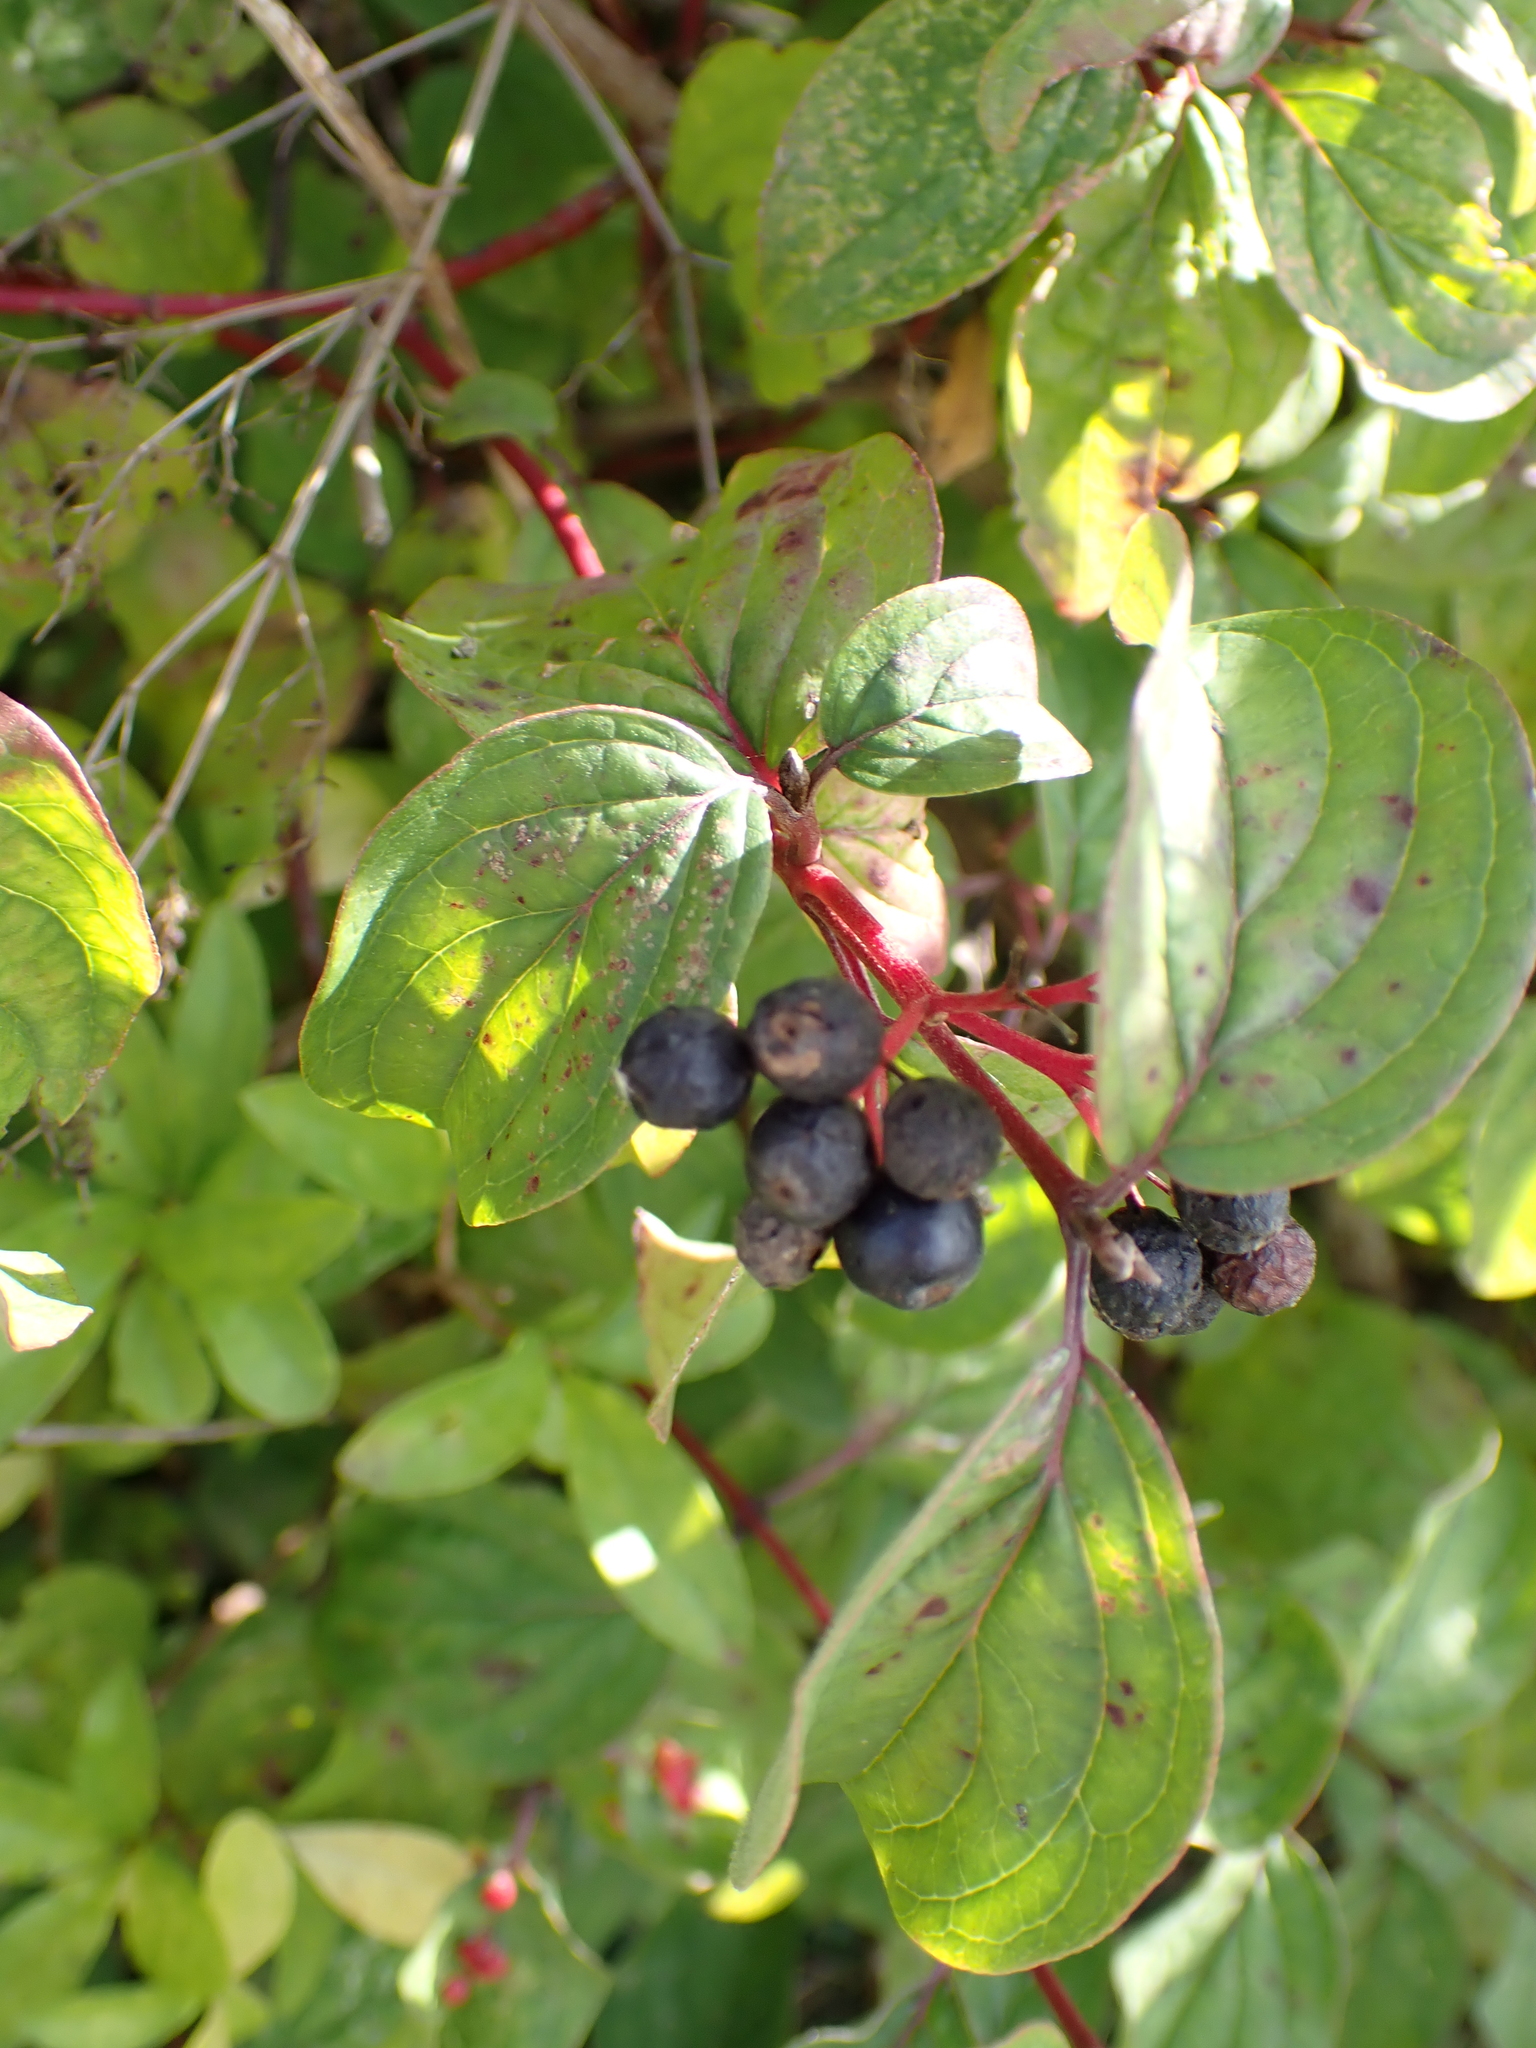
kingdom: Plantae
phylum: Tracheophyta
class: Magnoliopsida
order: Cornales
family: Cornaceae
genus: Cornus
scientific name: Cornus sanguinea
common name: Dogwood
